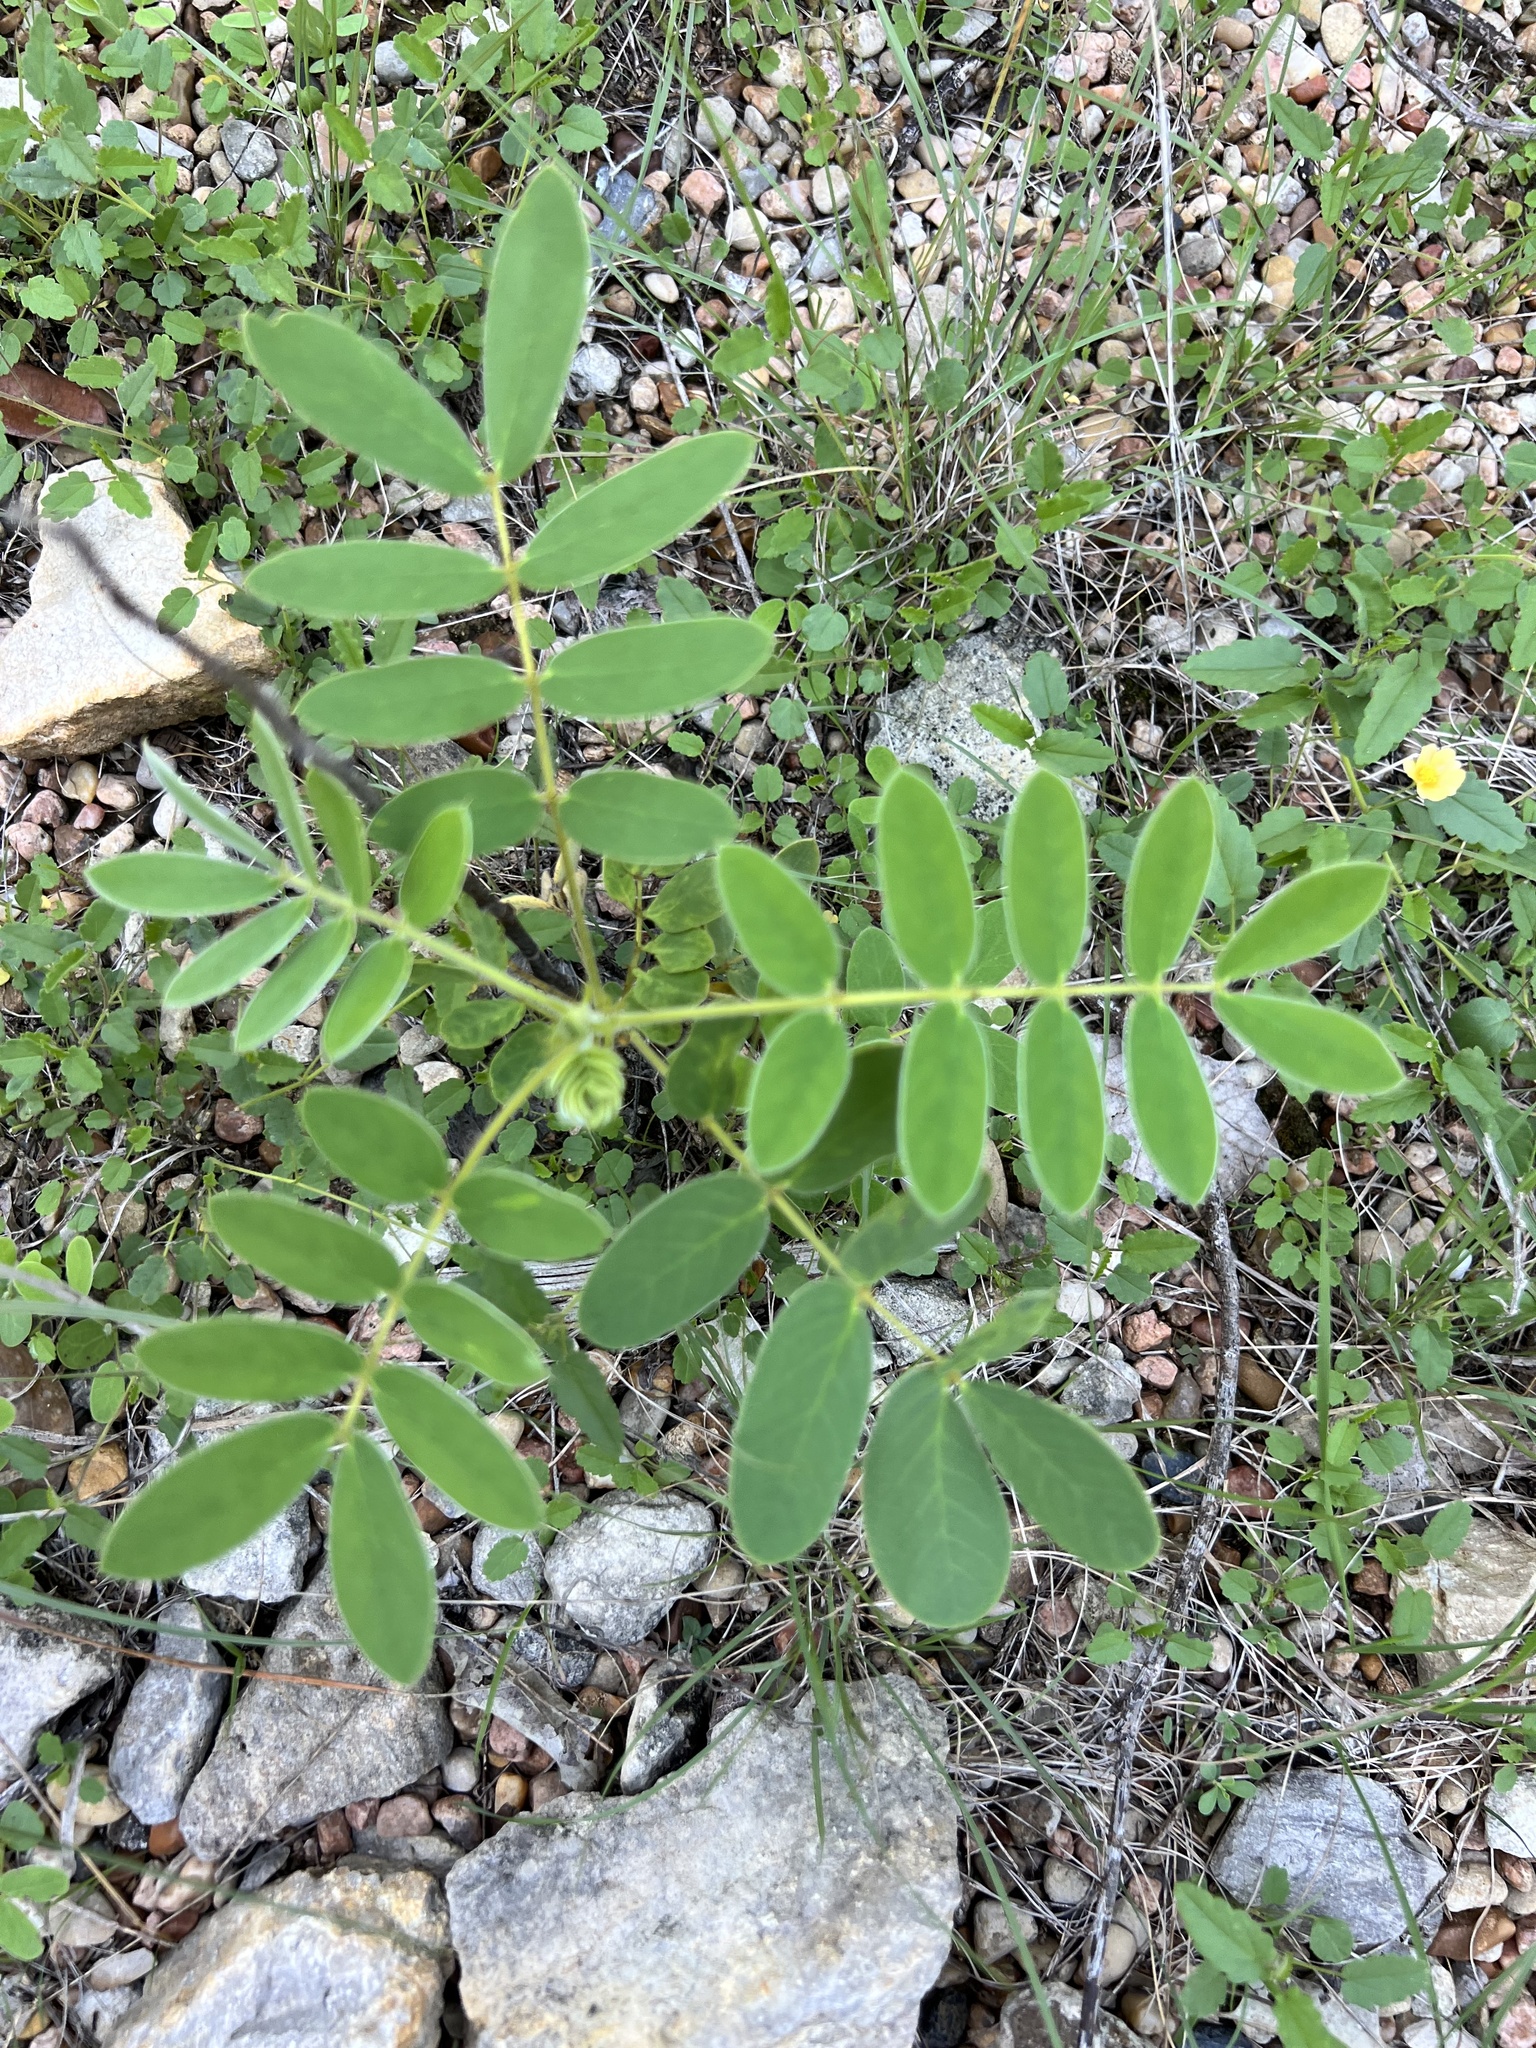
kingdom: Plantae
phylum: Tracheophyta
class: Magnoliopsida
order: Fabales
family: Fabaceae
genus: Senna
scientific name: Senna lindheimeriana
